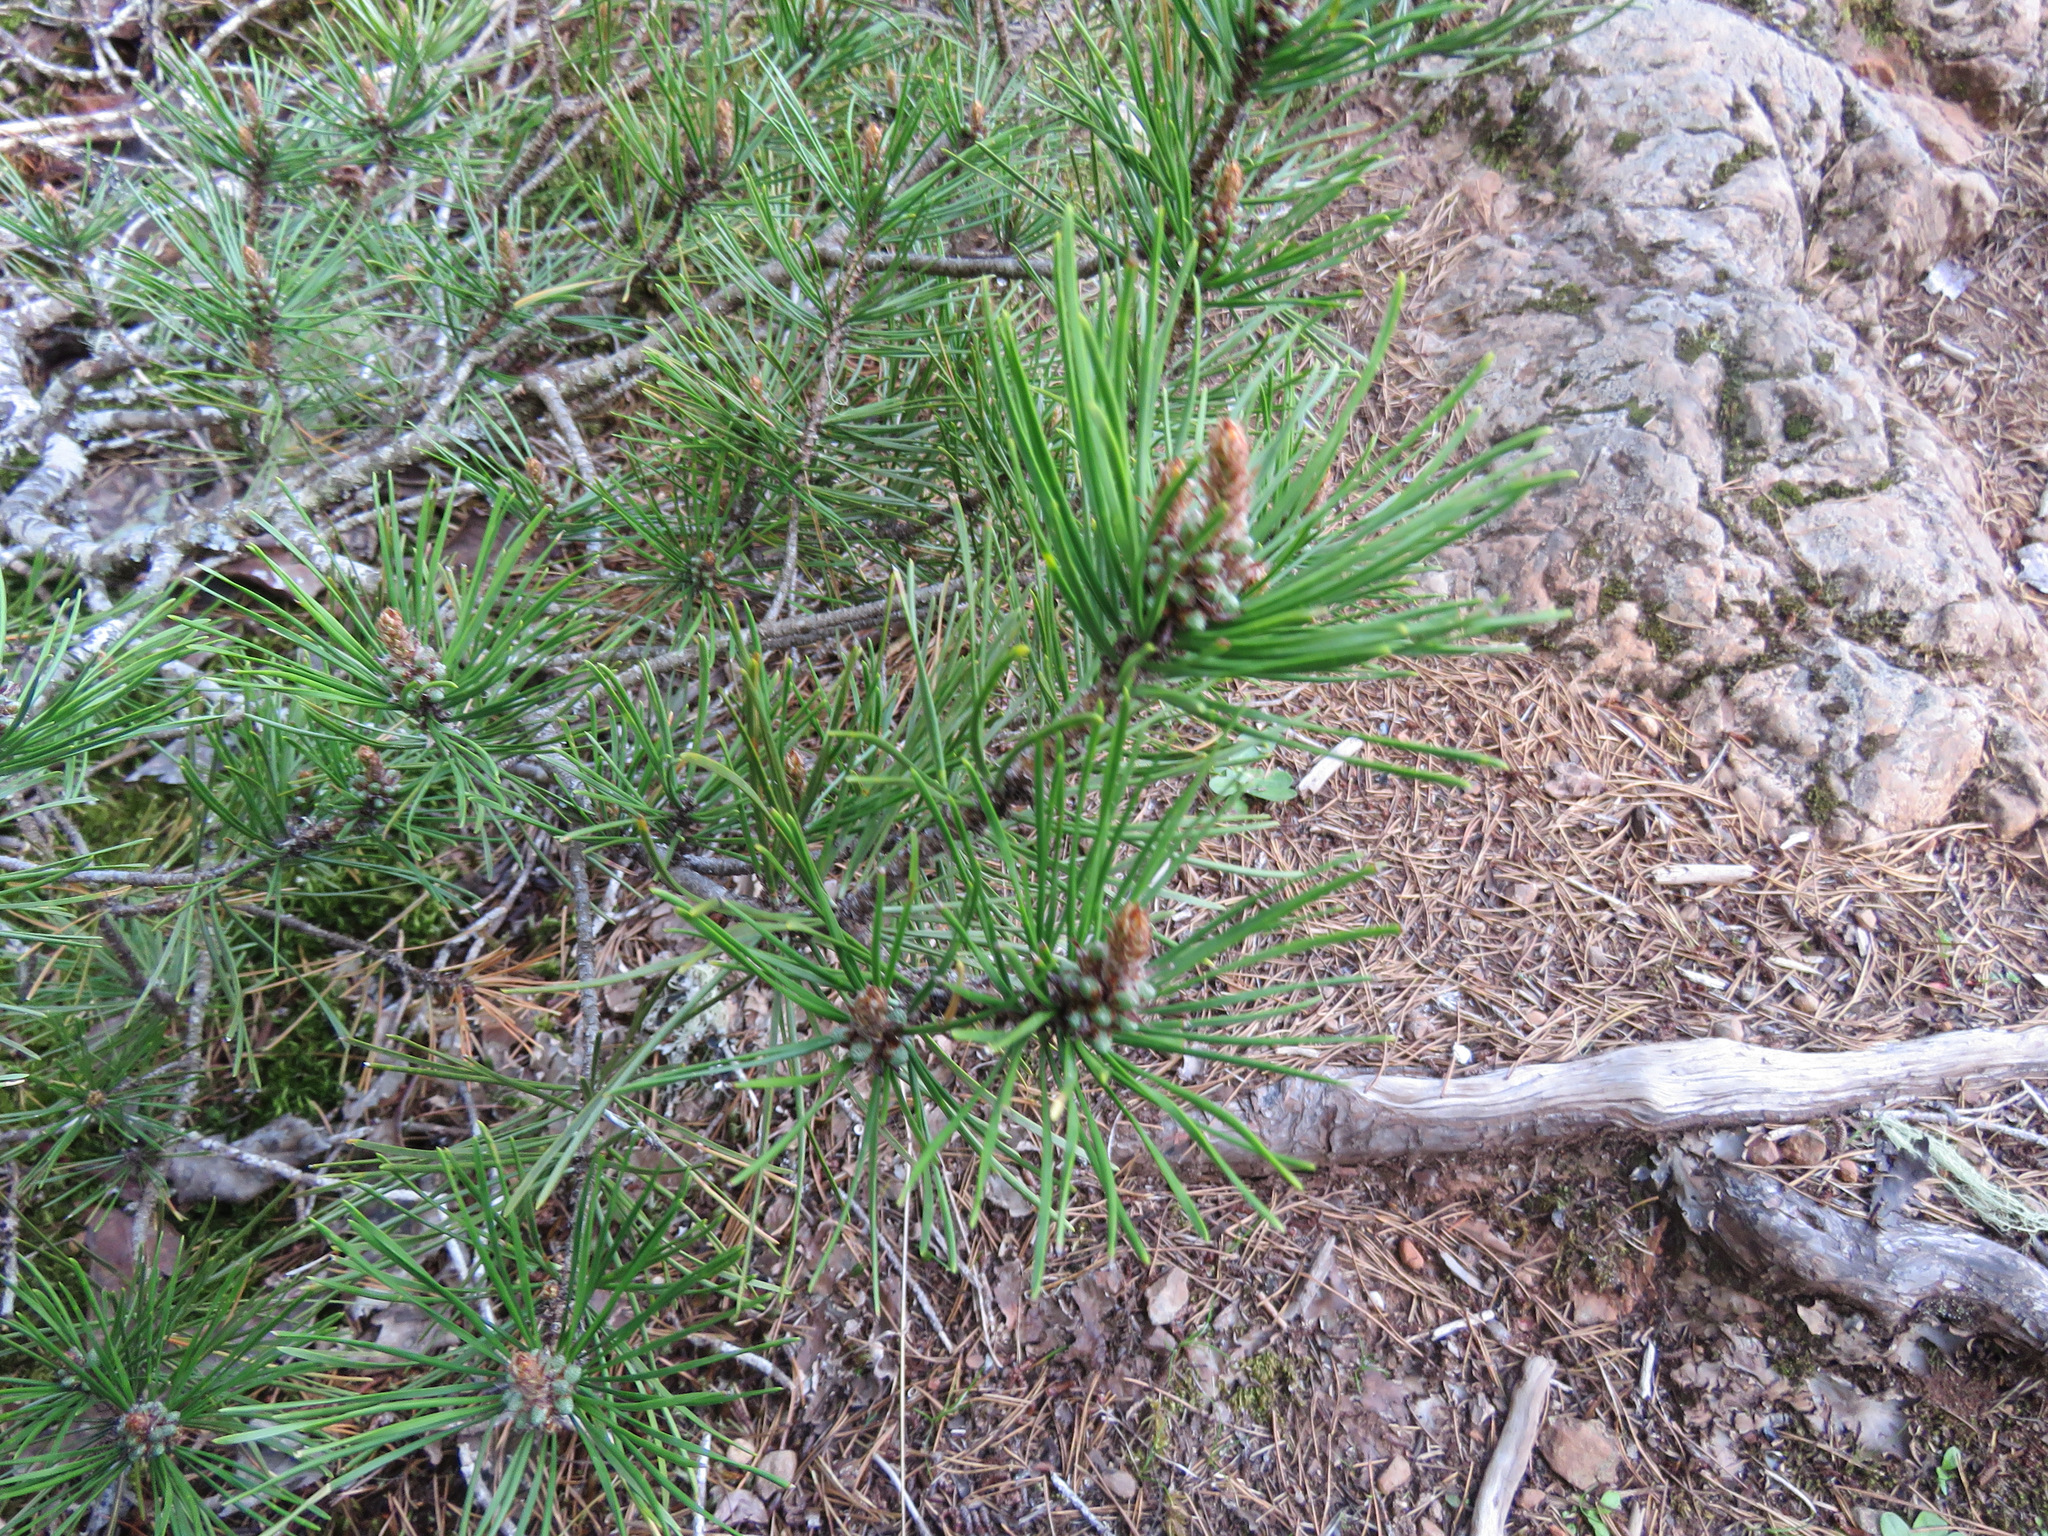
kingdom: Plantae
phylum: Tracheophyta
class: Pinopsida
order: Pinales
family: Pinaceae
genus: Pinus
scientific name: Pinus contorta
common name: Lodgepole pine
